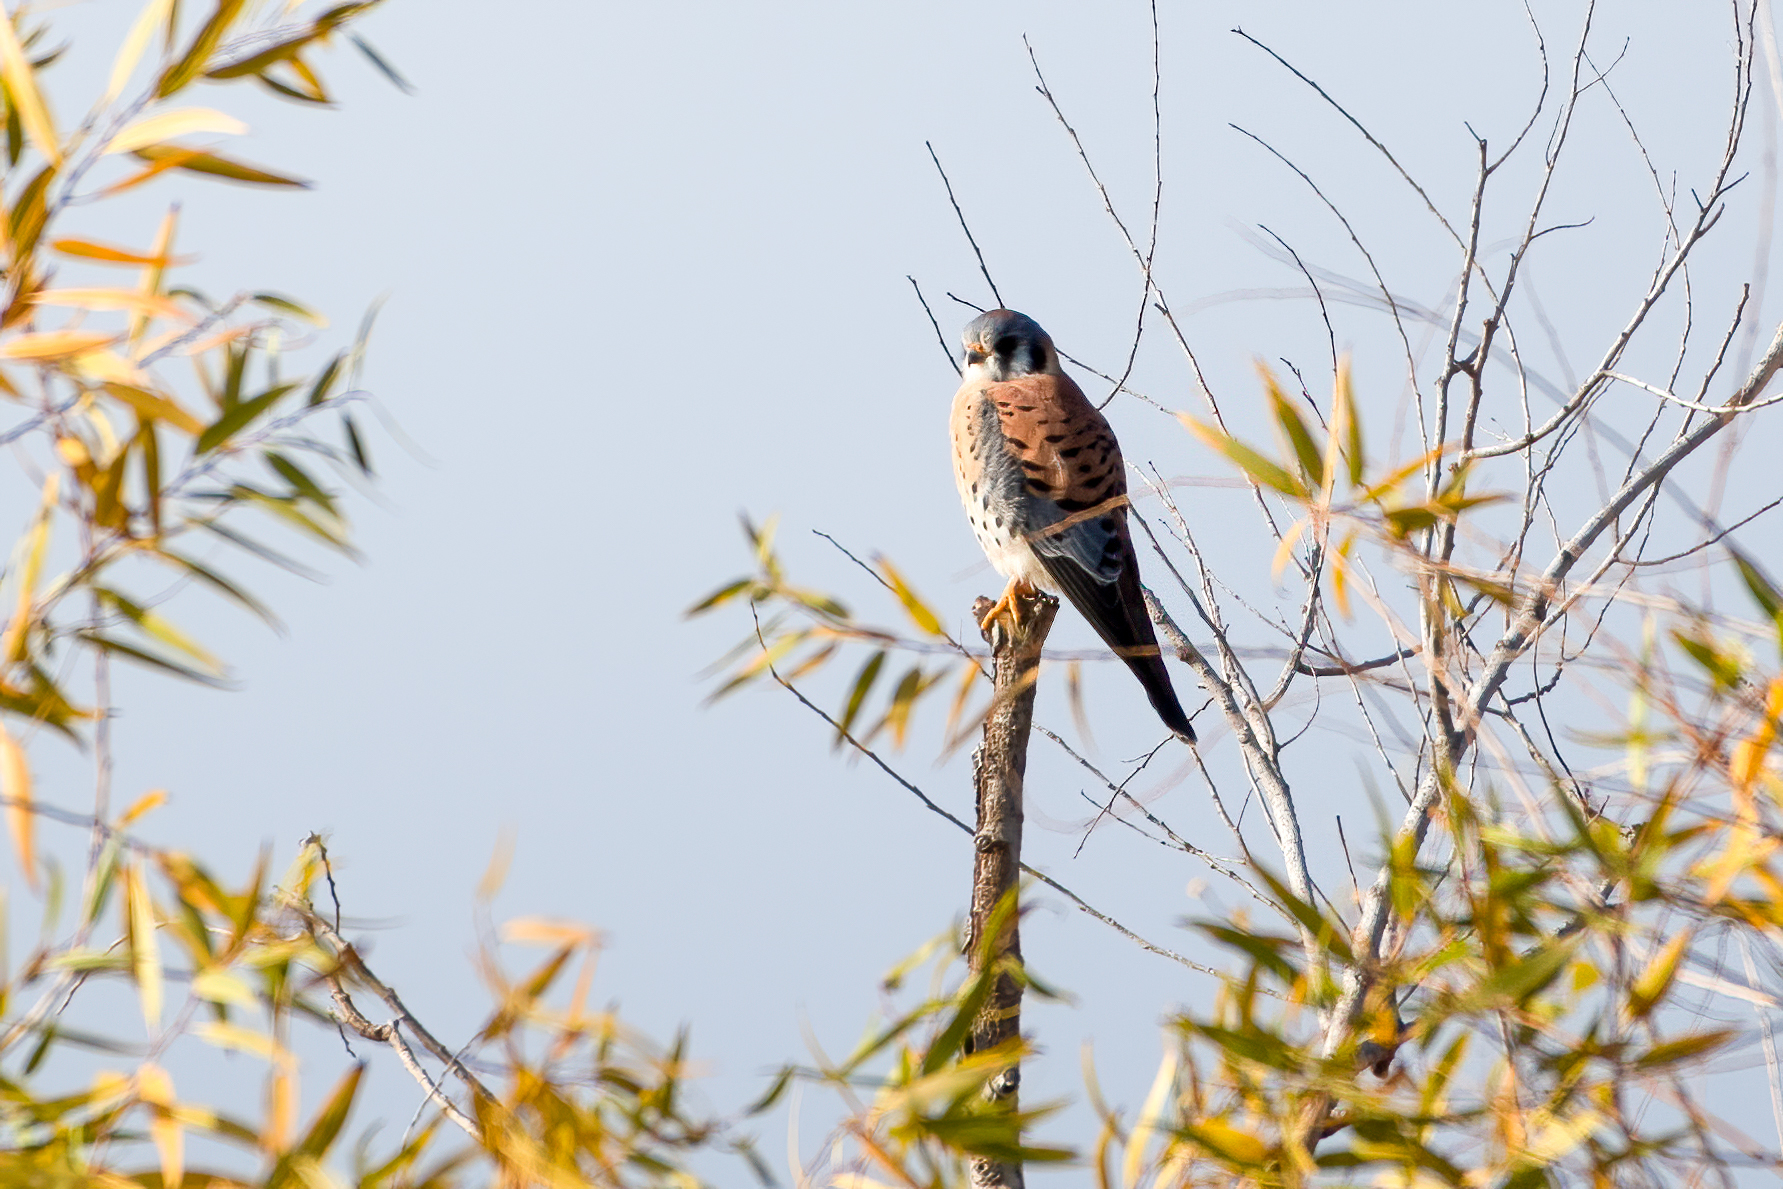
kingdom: Animalia
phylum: Chordata
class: Aves
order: Falconiformes
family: Falconidae
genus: Falco
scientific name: Falco sparverius
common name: American kestrel
